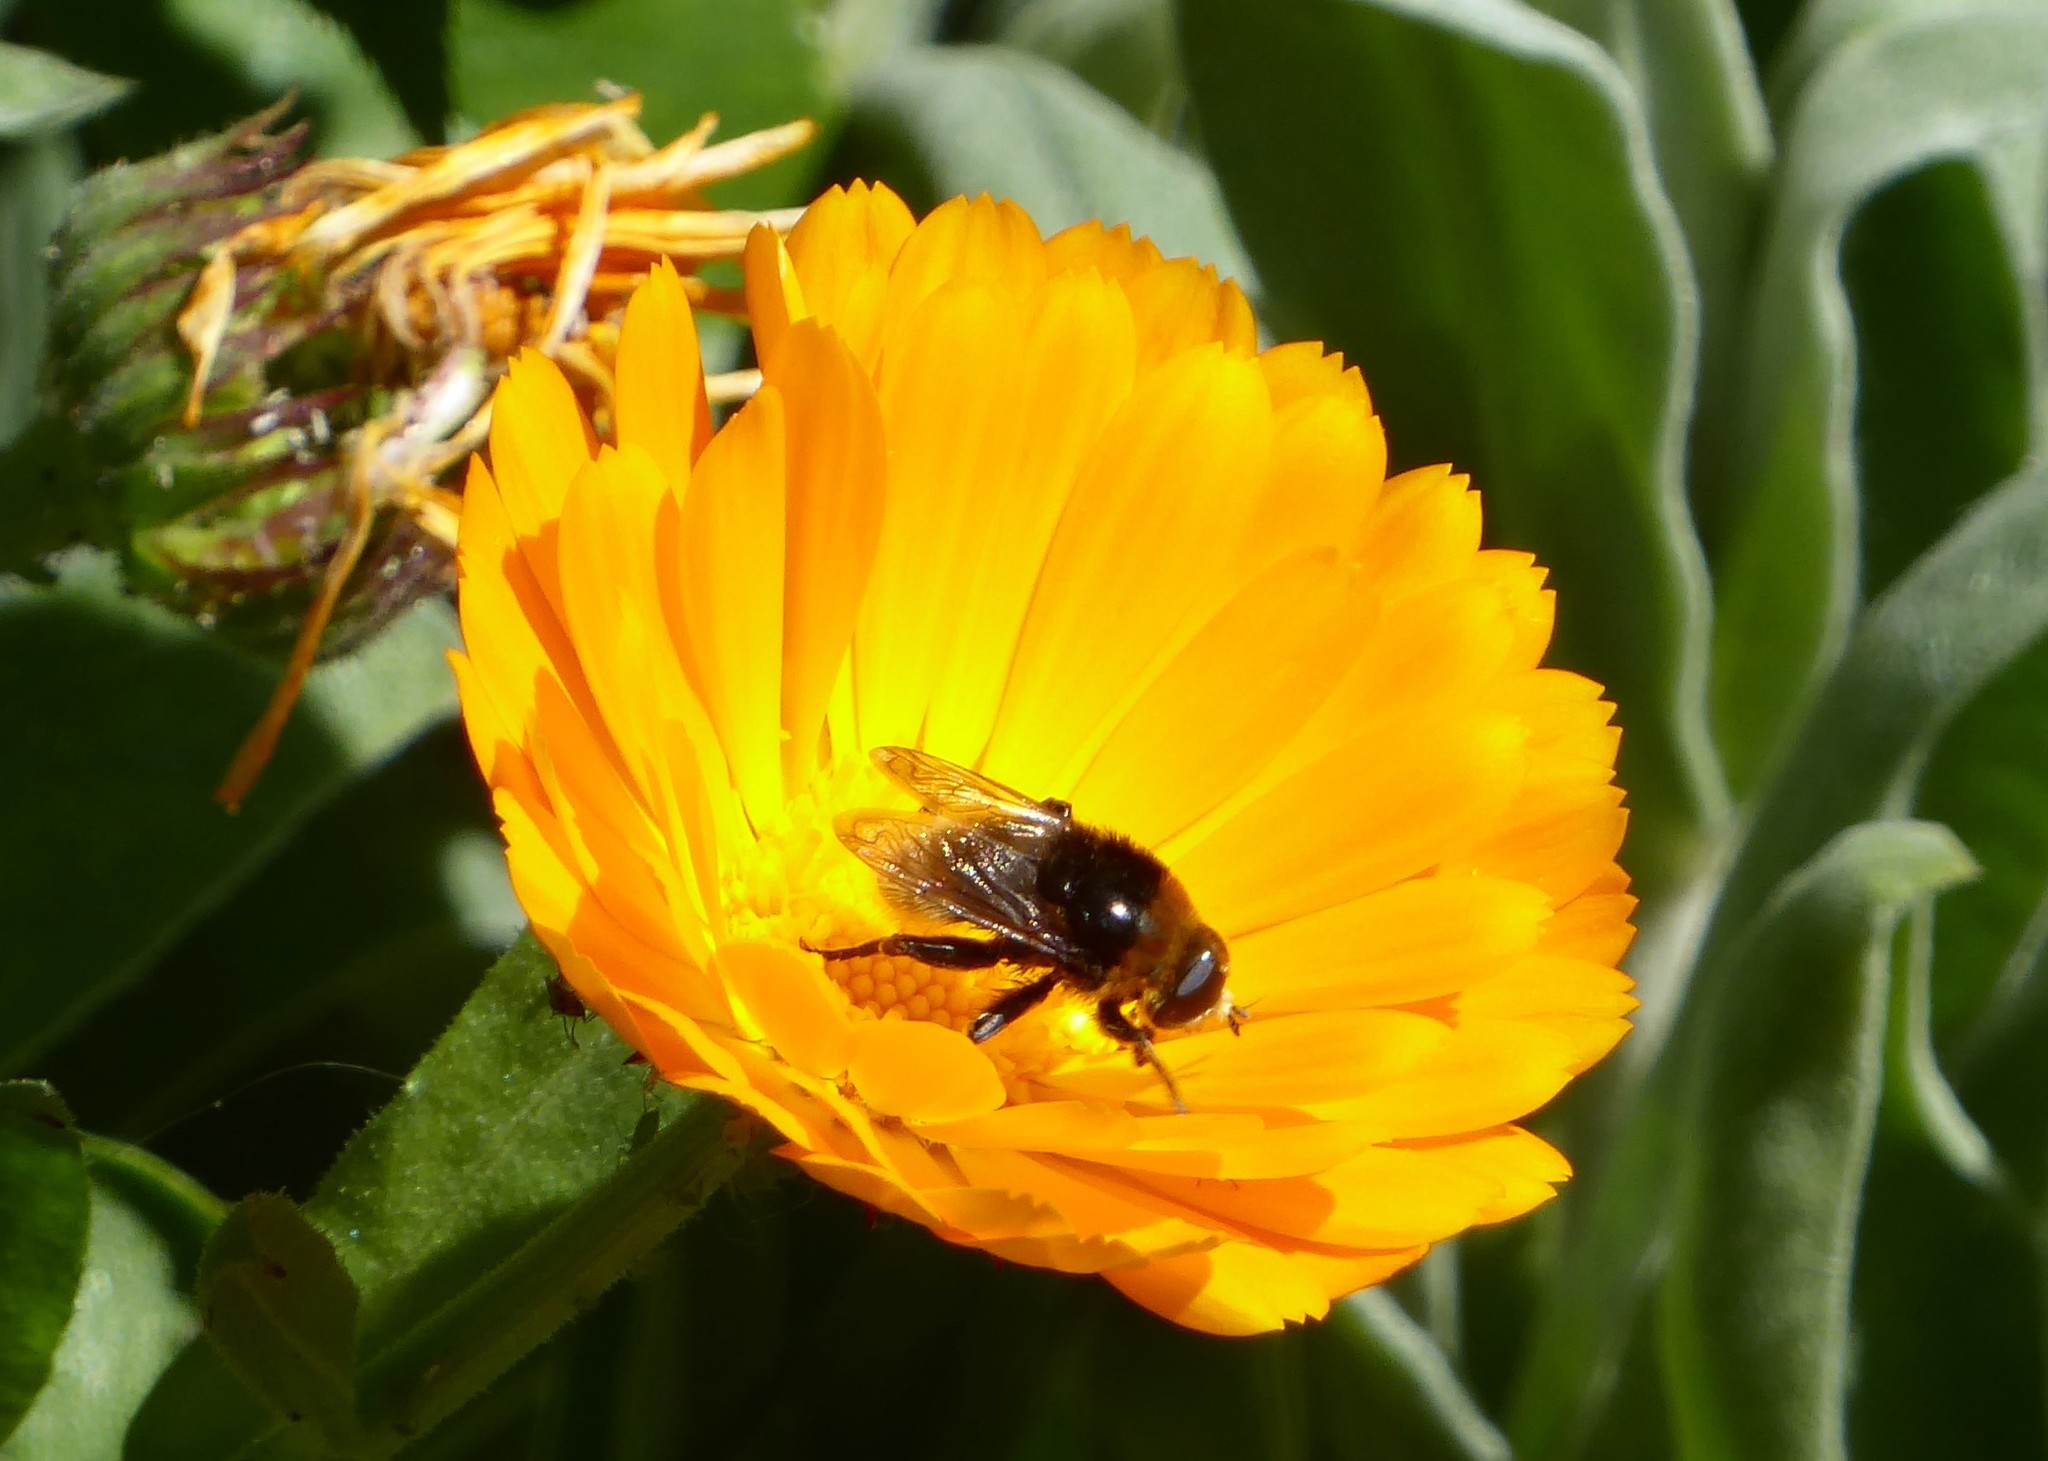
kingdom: Animalia
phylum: Arthropoda
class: Insecta
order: Diptera
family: Syrphidae
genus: Merodon
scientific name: Merodon equestris
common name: Greater bulb-fly
